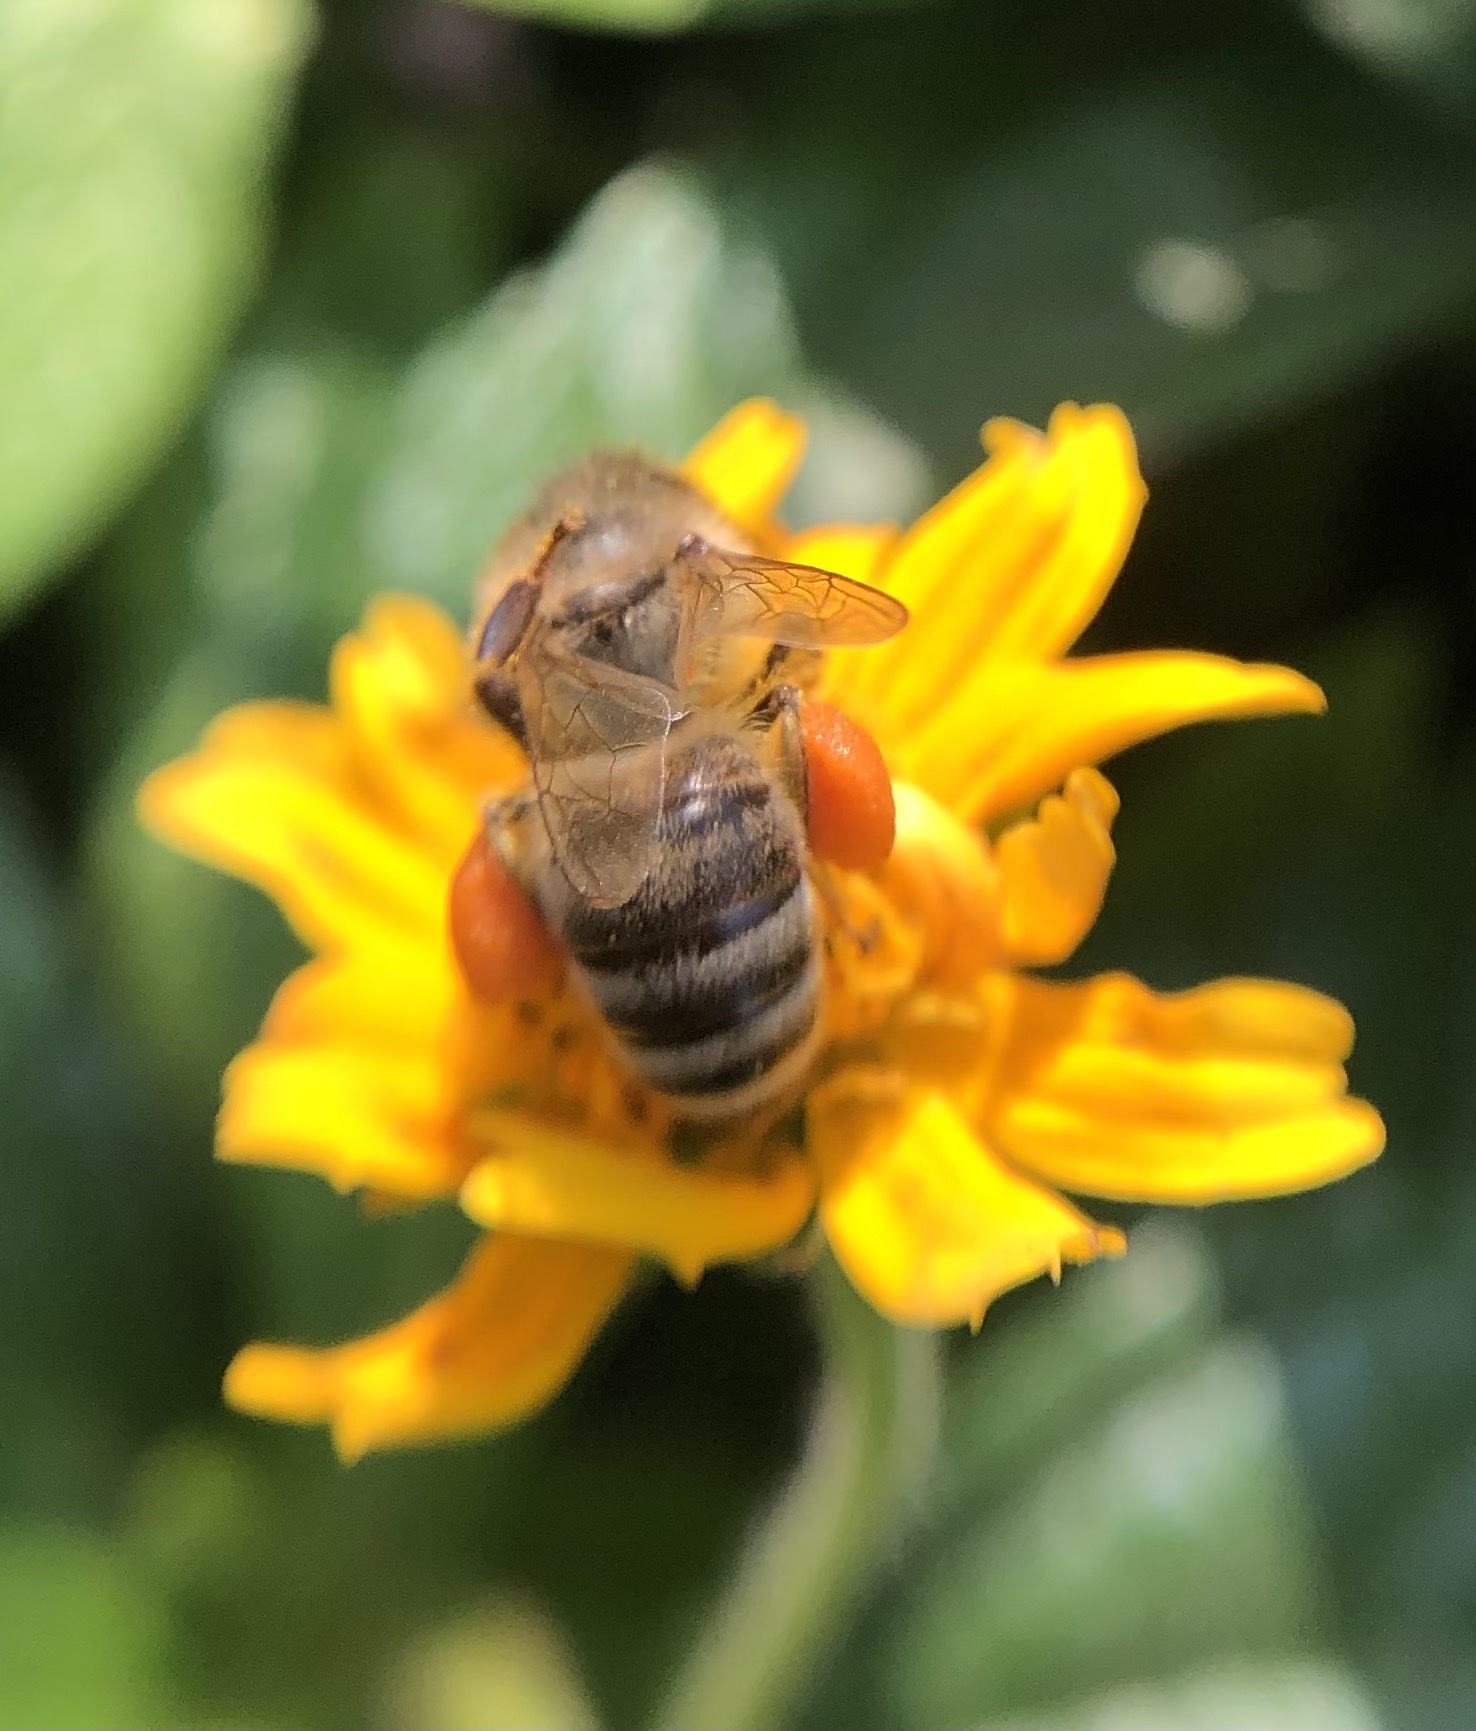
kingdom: Animalia
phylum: Arthropoda
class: Insecta
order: Hymenoptera
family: Apidae
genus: Apis
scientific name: Apis mellifera
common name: Honey bee
